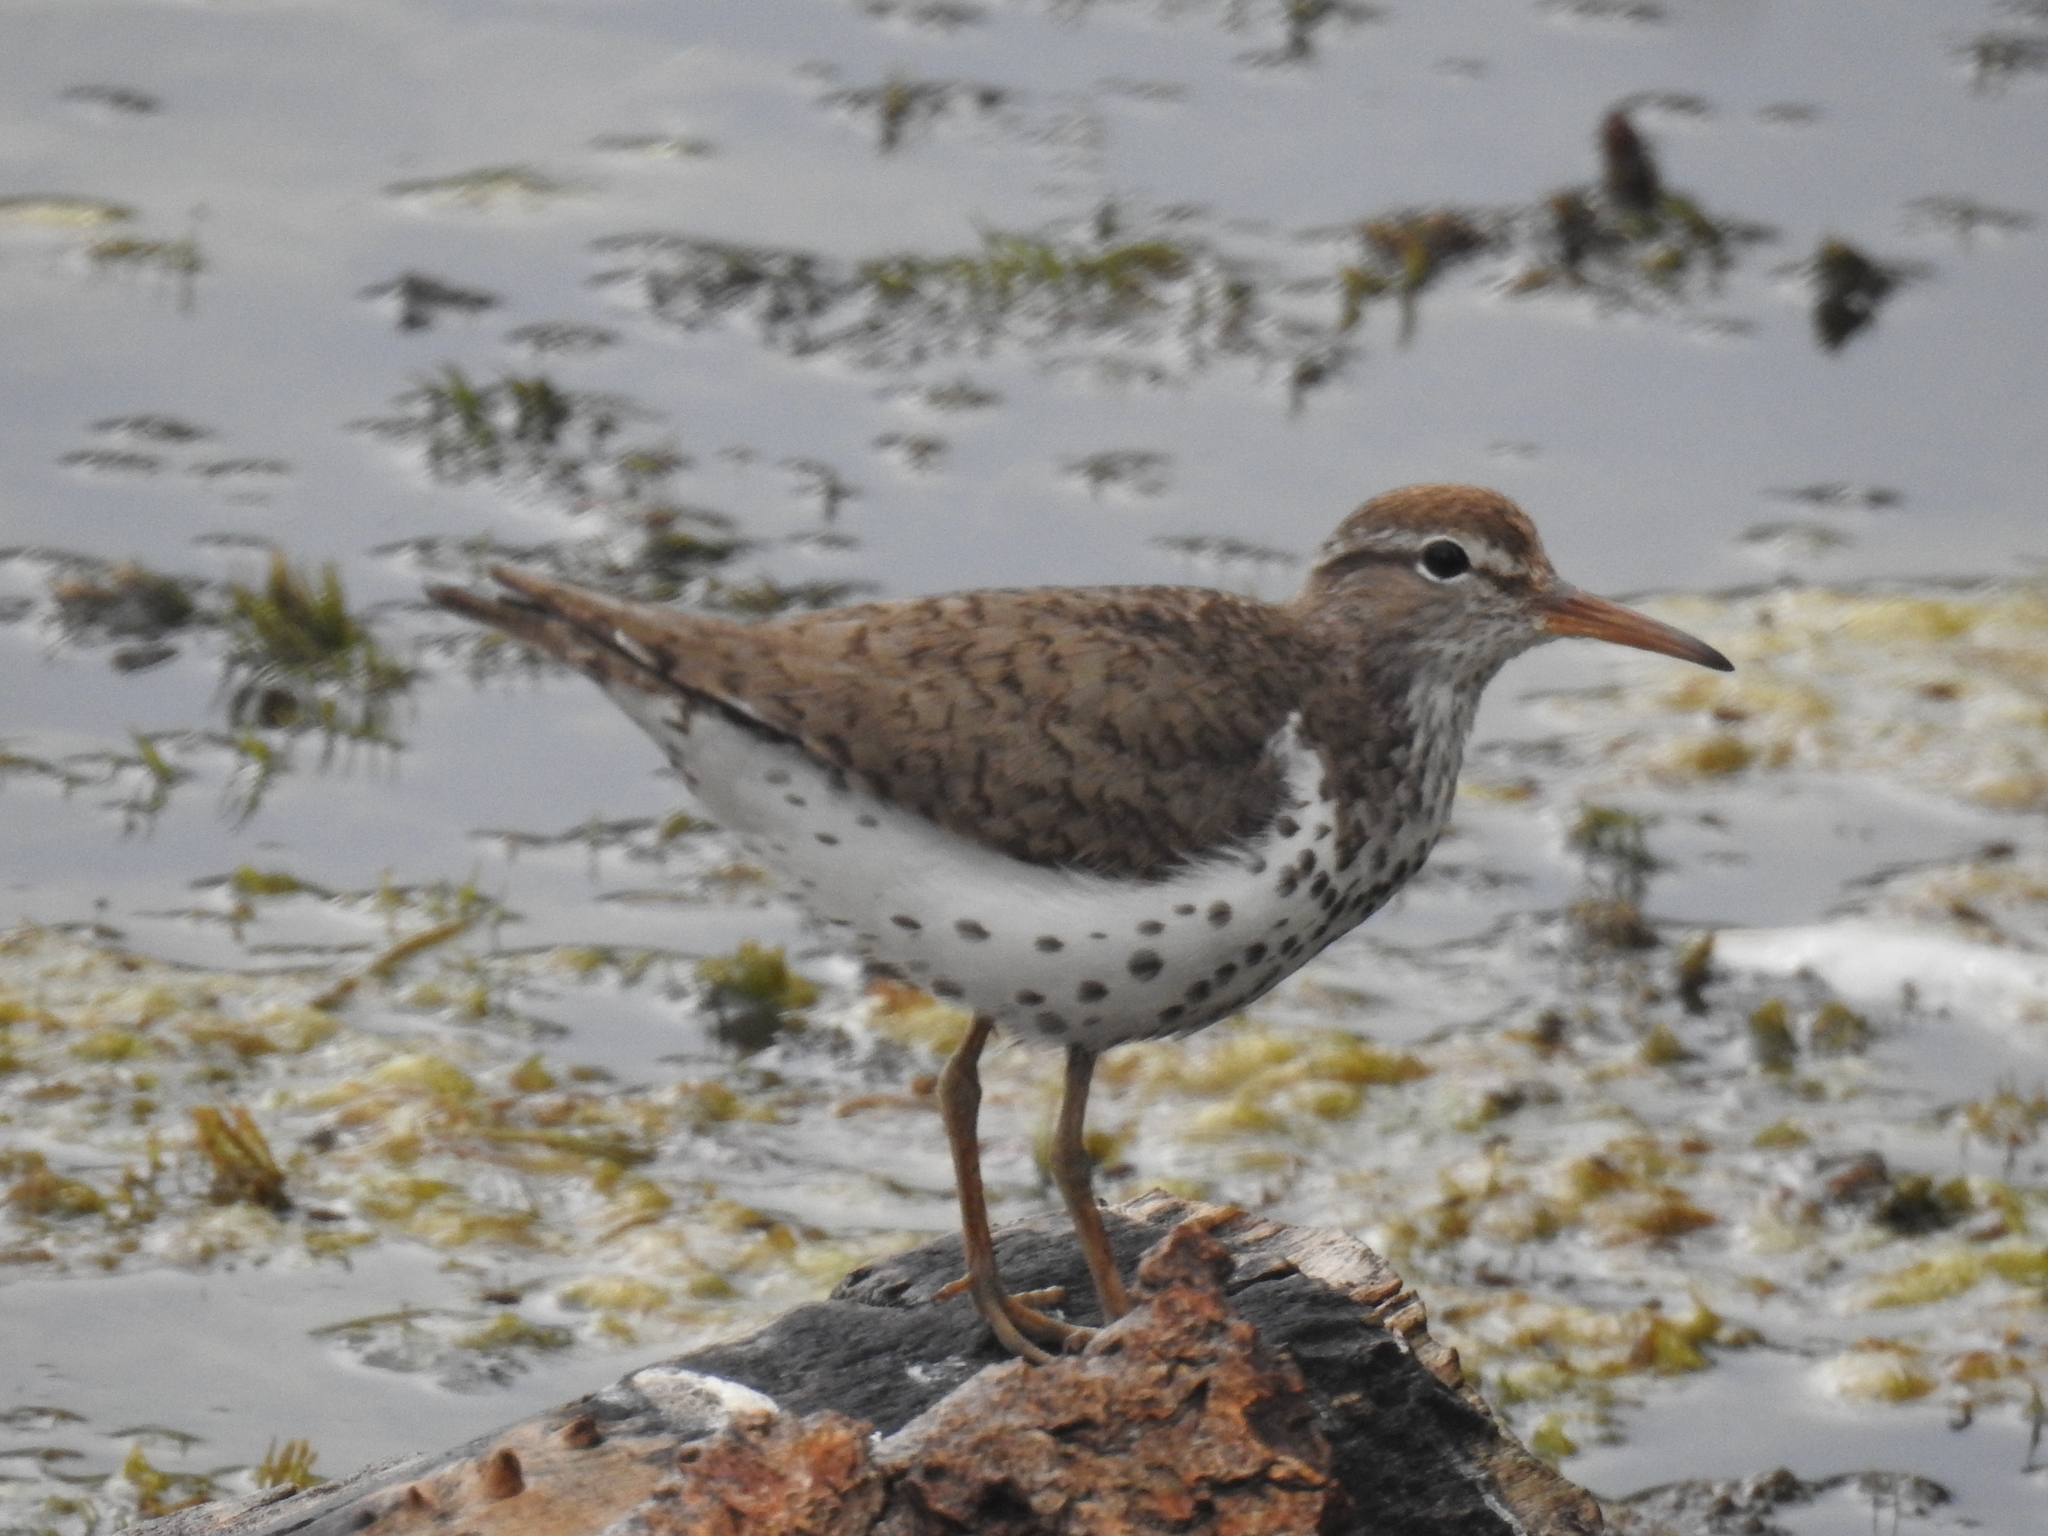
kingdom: Animalia
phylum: Chordata
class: Aves
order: Charadriiformes
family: Scolopacidae
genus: Actitis
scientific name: Actitis macularius
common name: Spotted sandpiper
